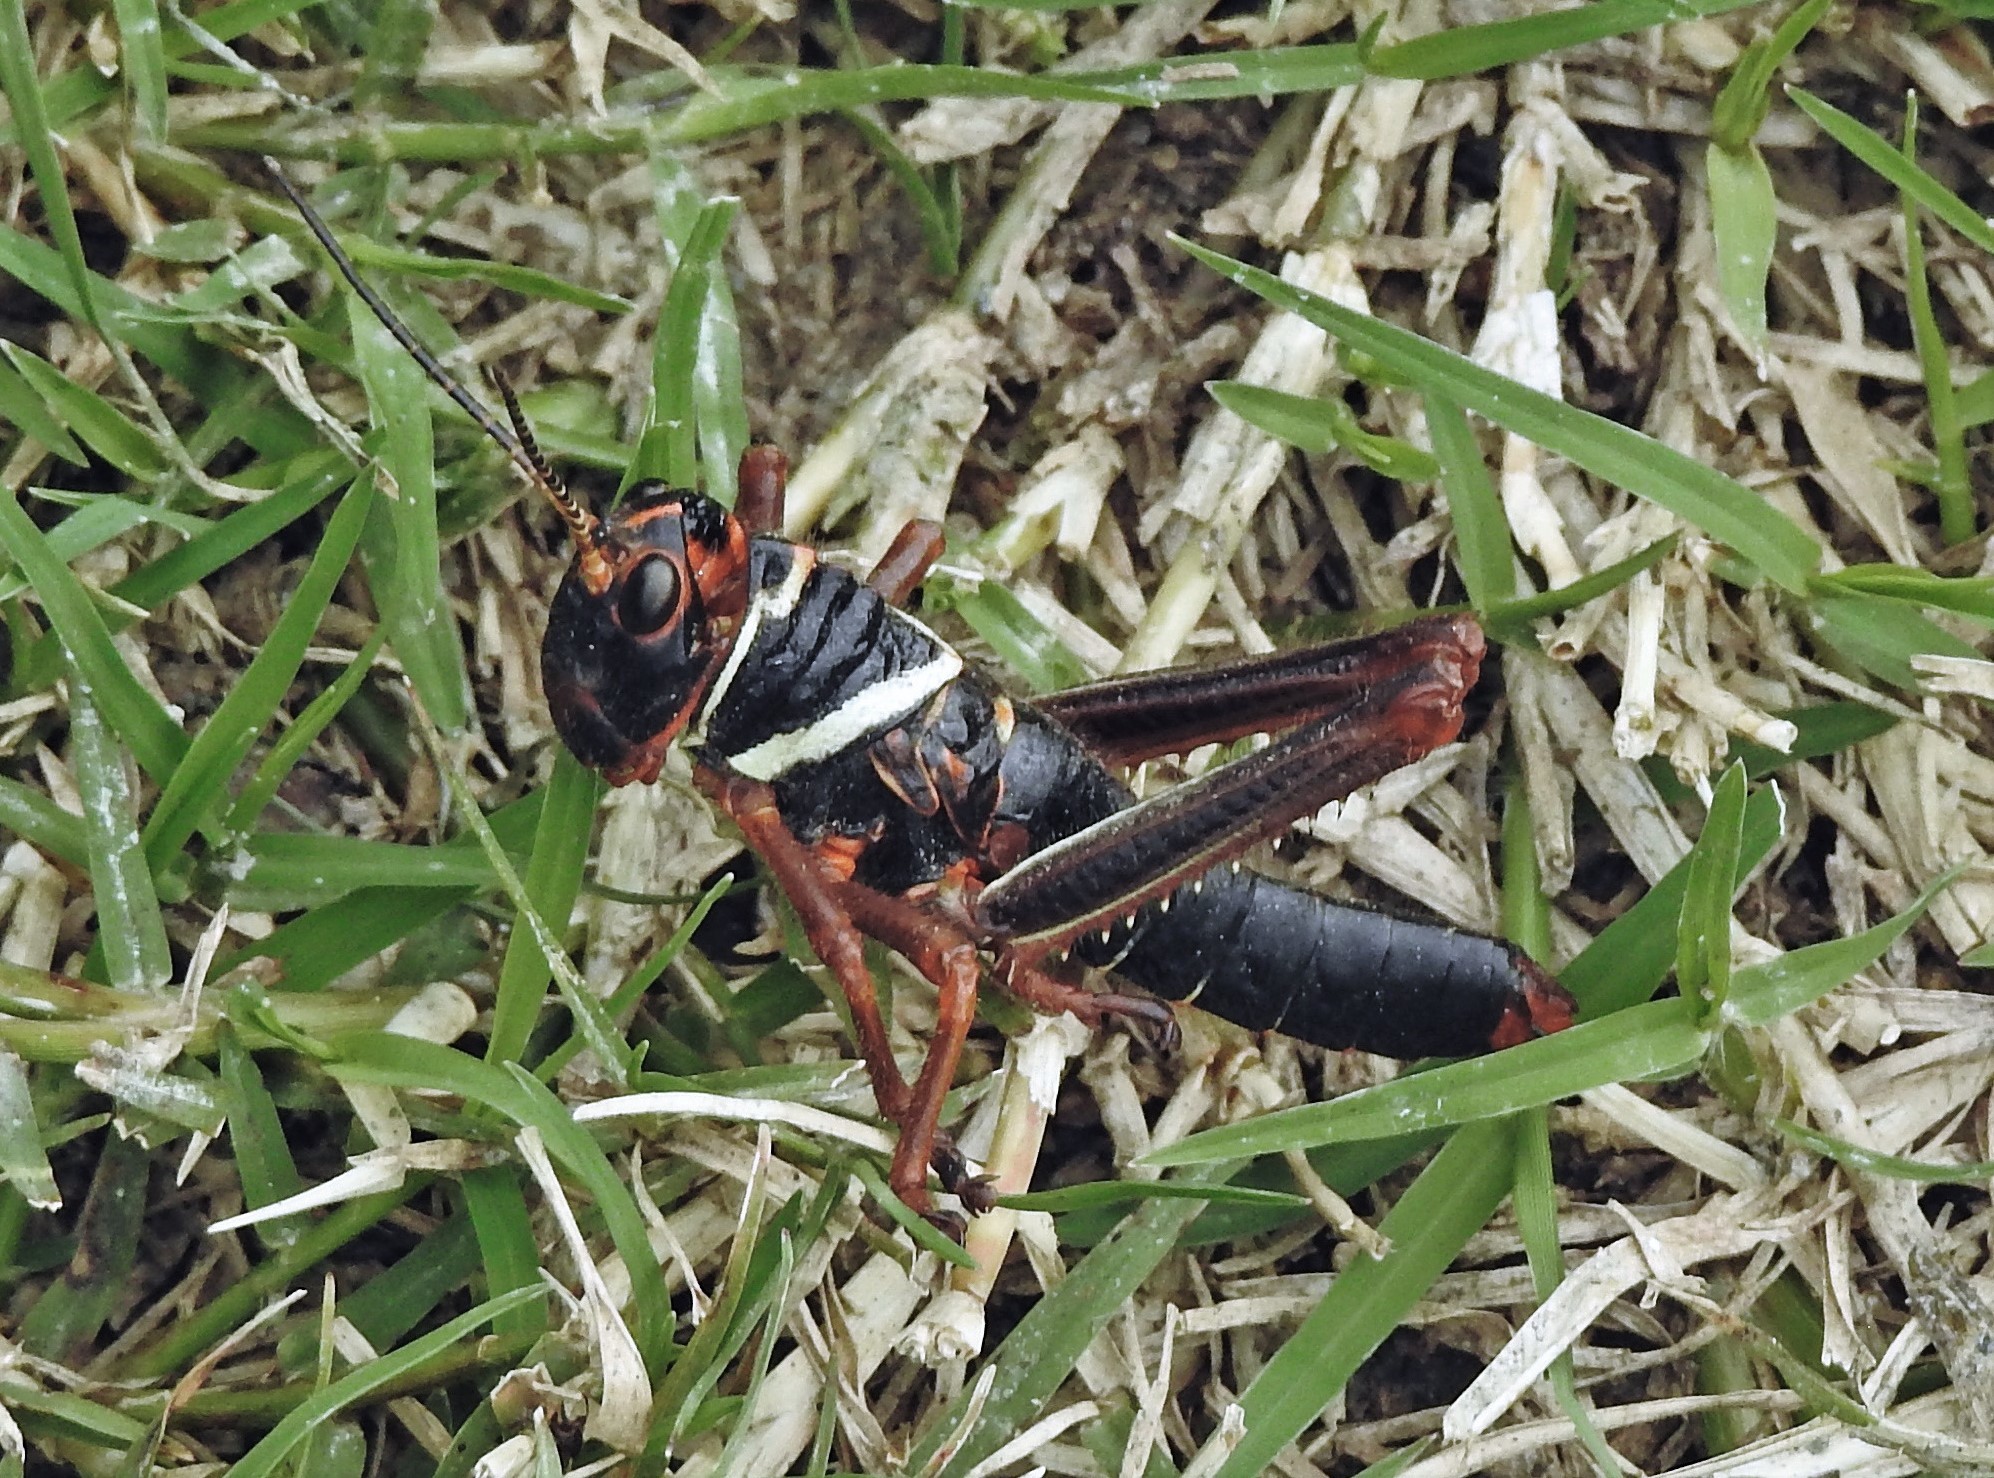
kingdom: Animalia
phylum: Arthropoda
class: Insecta
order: Orthoptera
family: Romaleidae
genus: Tropidacris
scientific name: Tropidacris collaris
